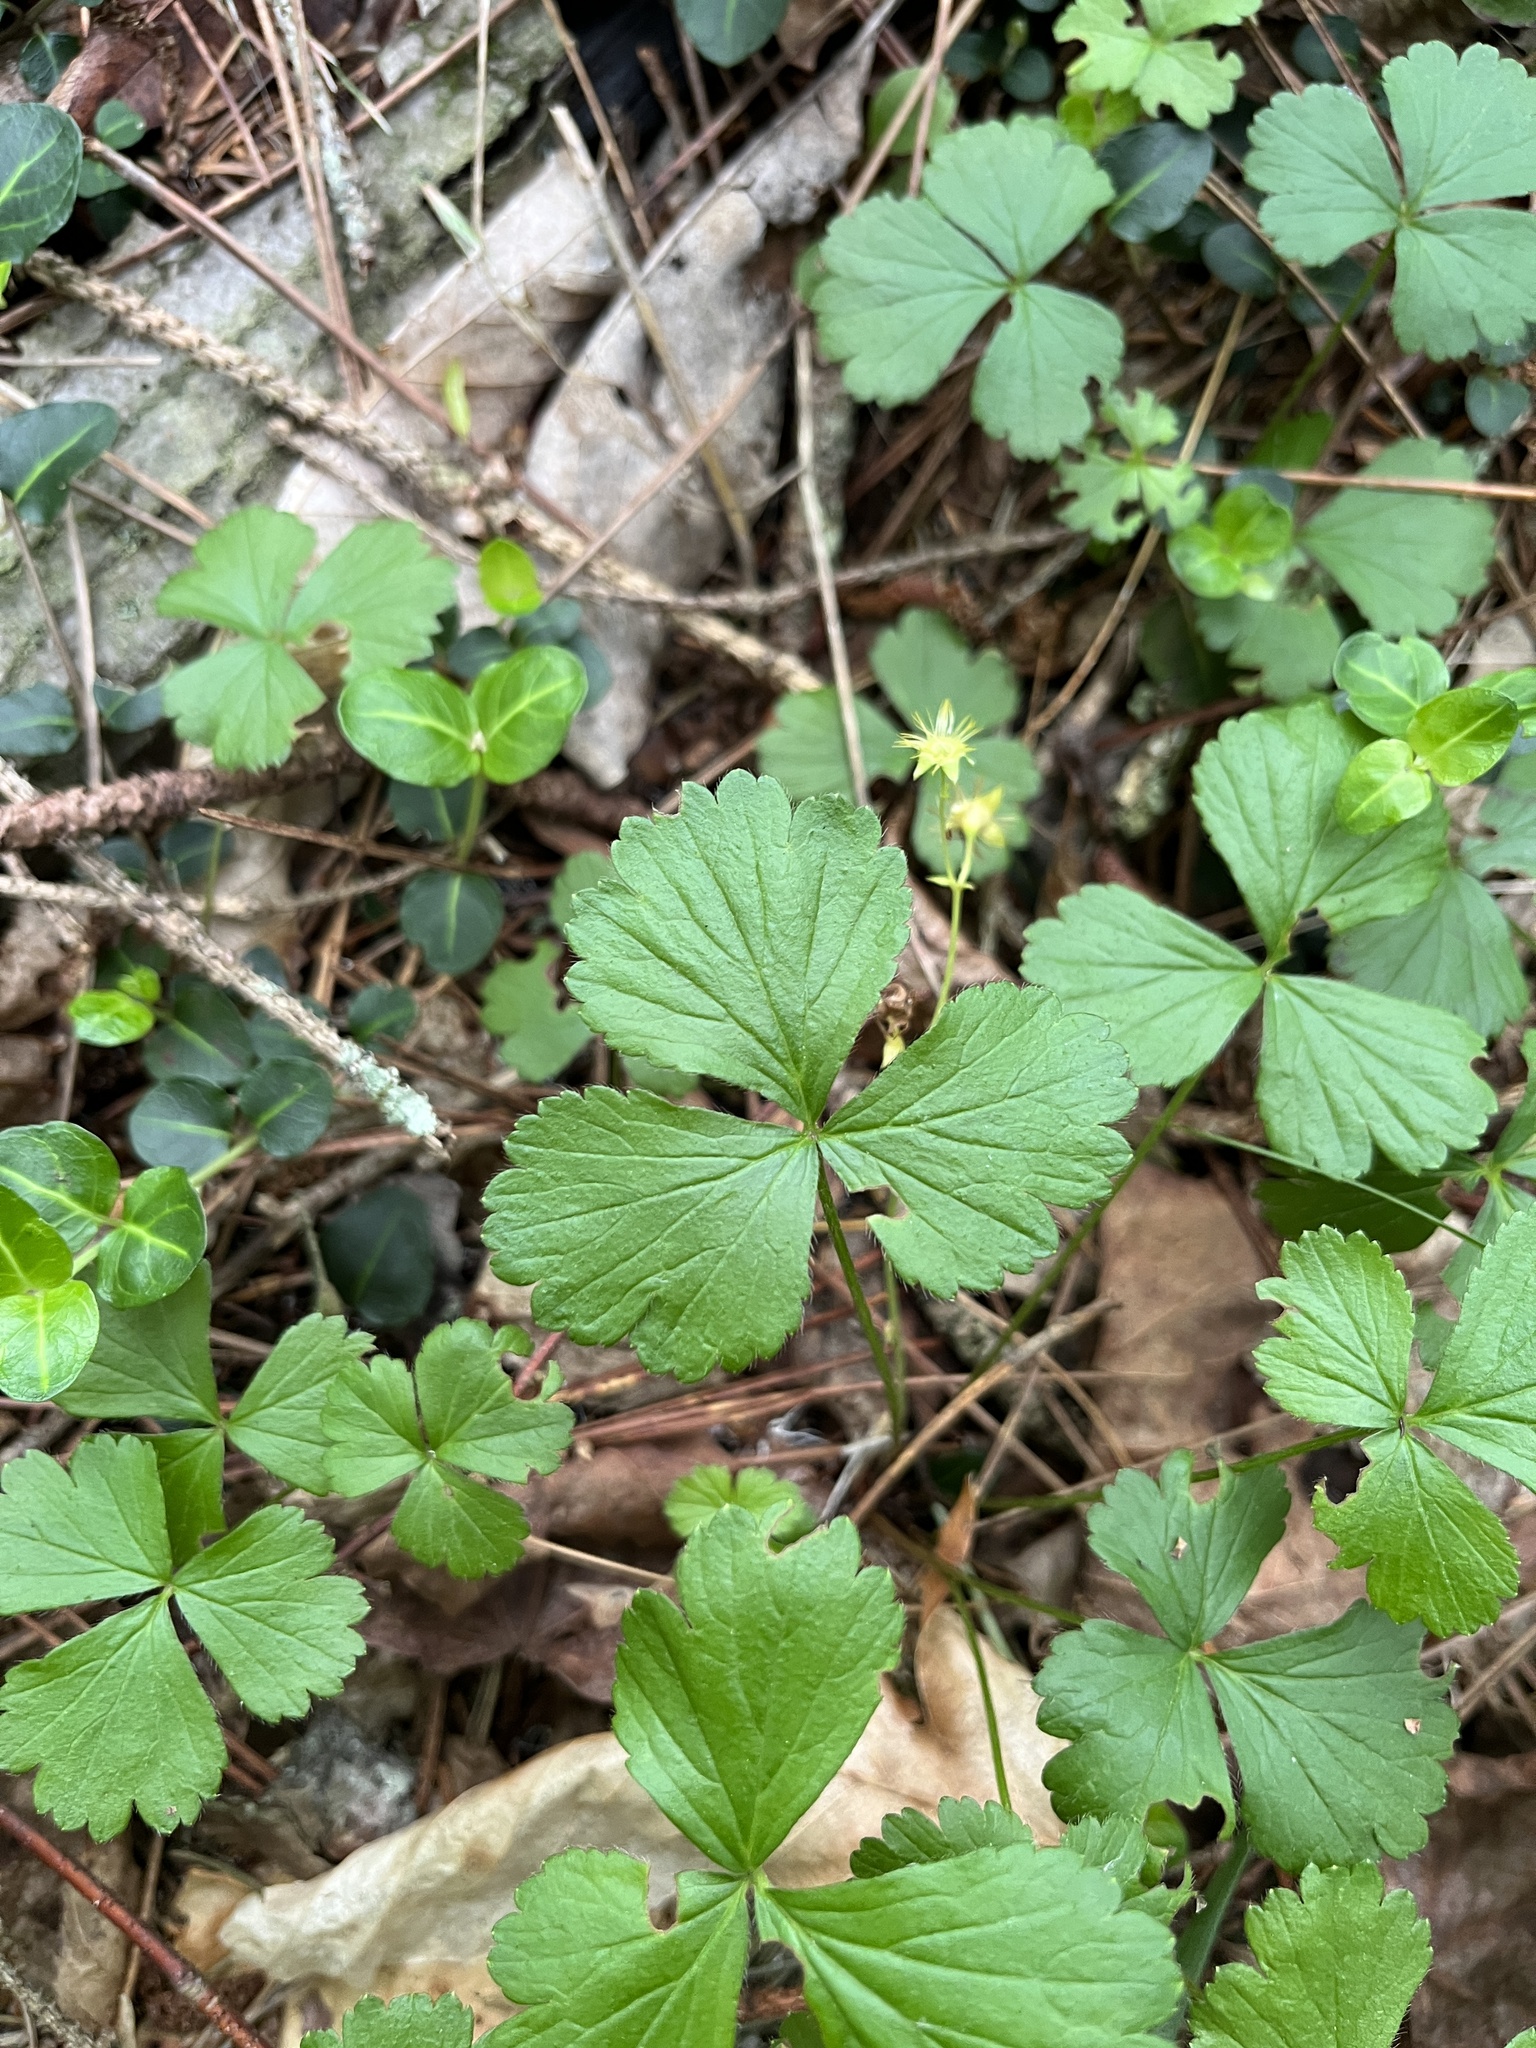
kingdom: Plantae
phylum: Tracheophyta
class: Magnoliopsida
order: Rosales
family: Rosaceae
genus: Geum
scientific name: Geum fragarioides
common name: Appalachian barren strawberry
